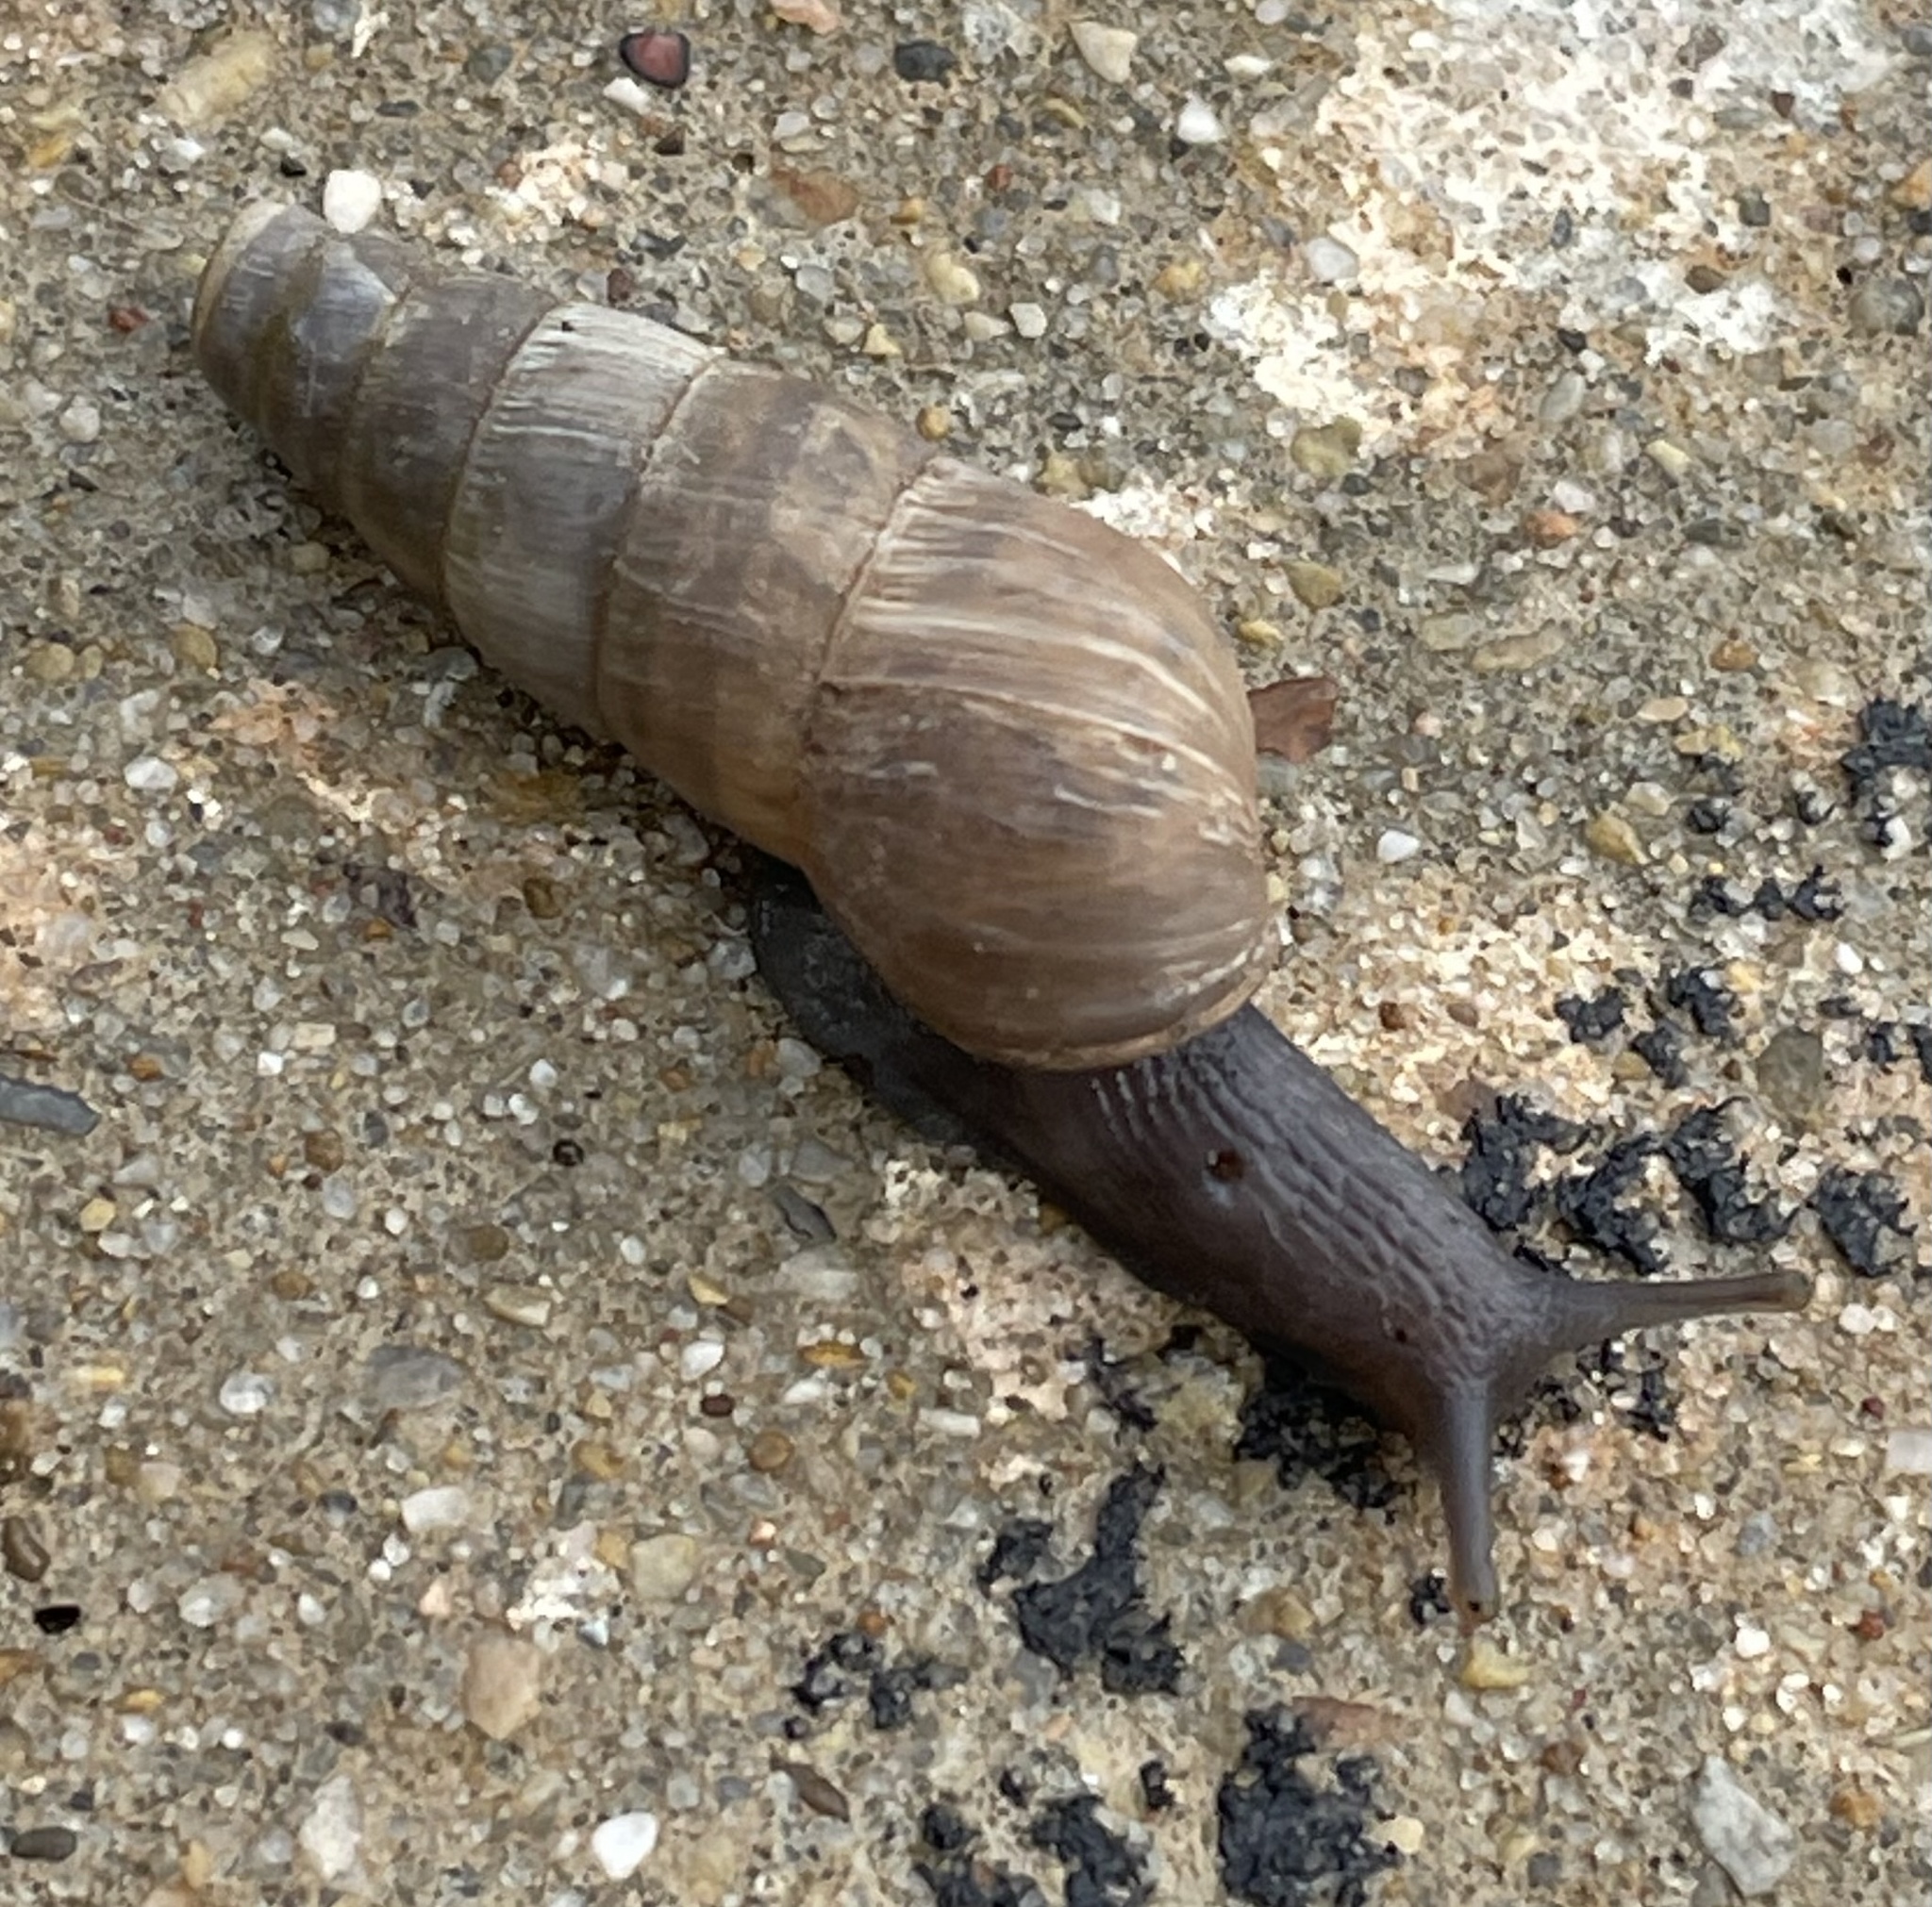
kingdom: Animalia
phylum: Mollusca
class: Gastropoda
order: Stylommatophora
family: Achatinidae
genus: Rumina
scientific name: Rumina decollata
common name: Decollate snail
